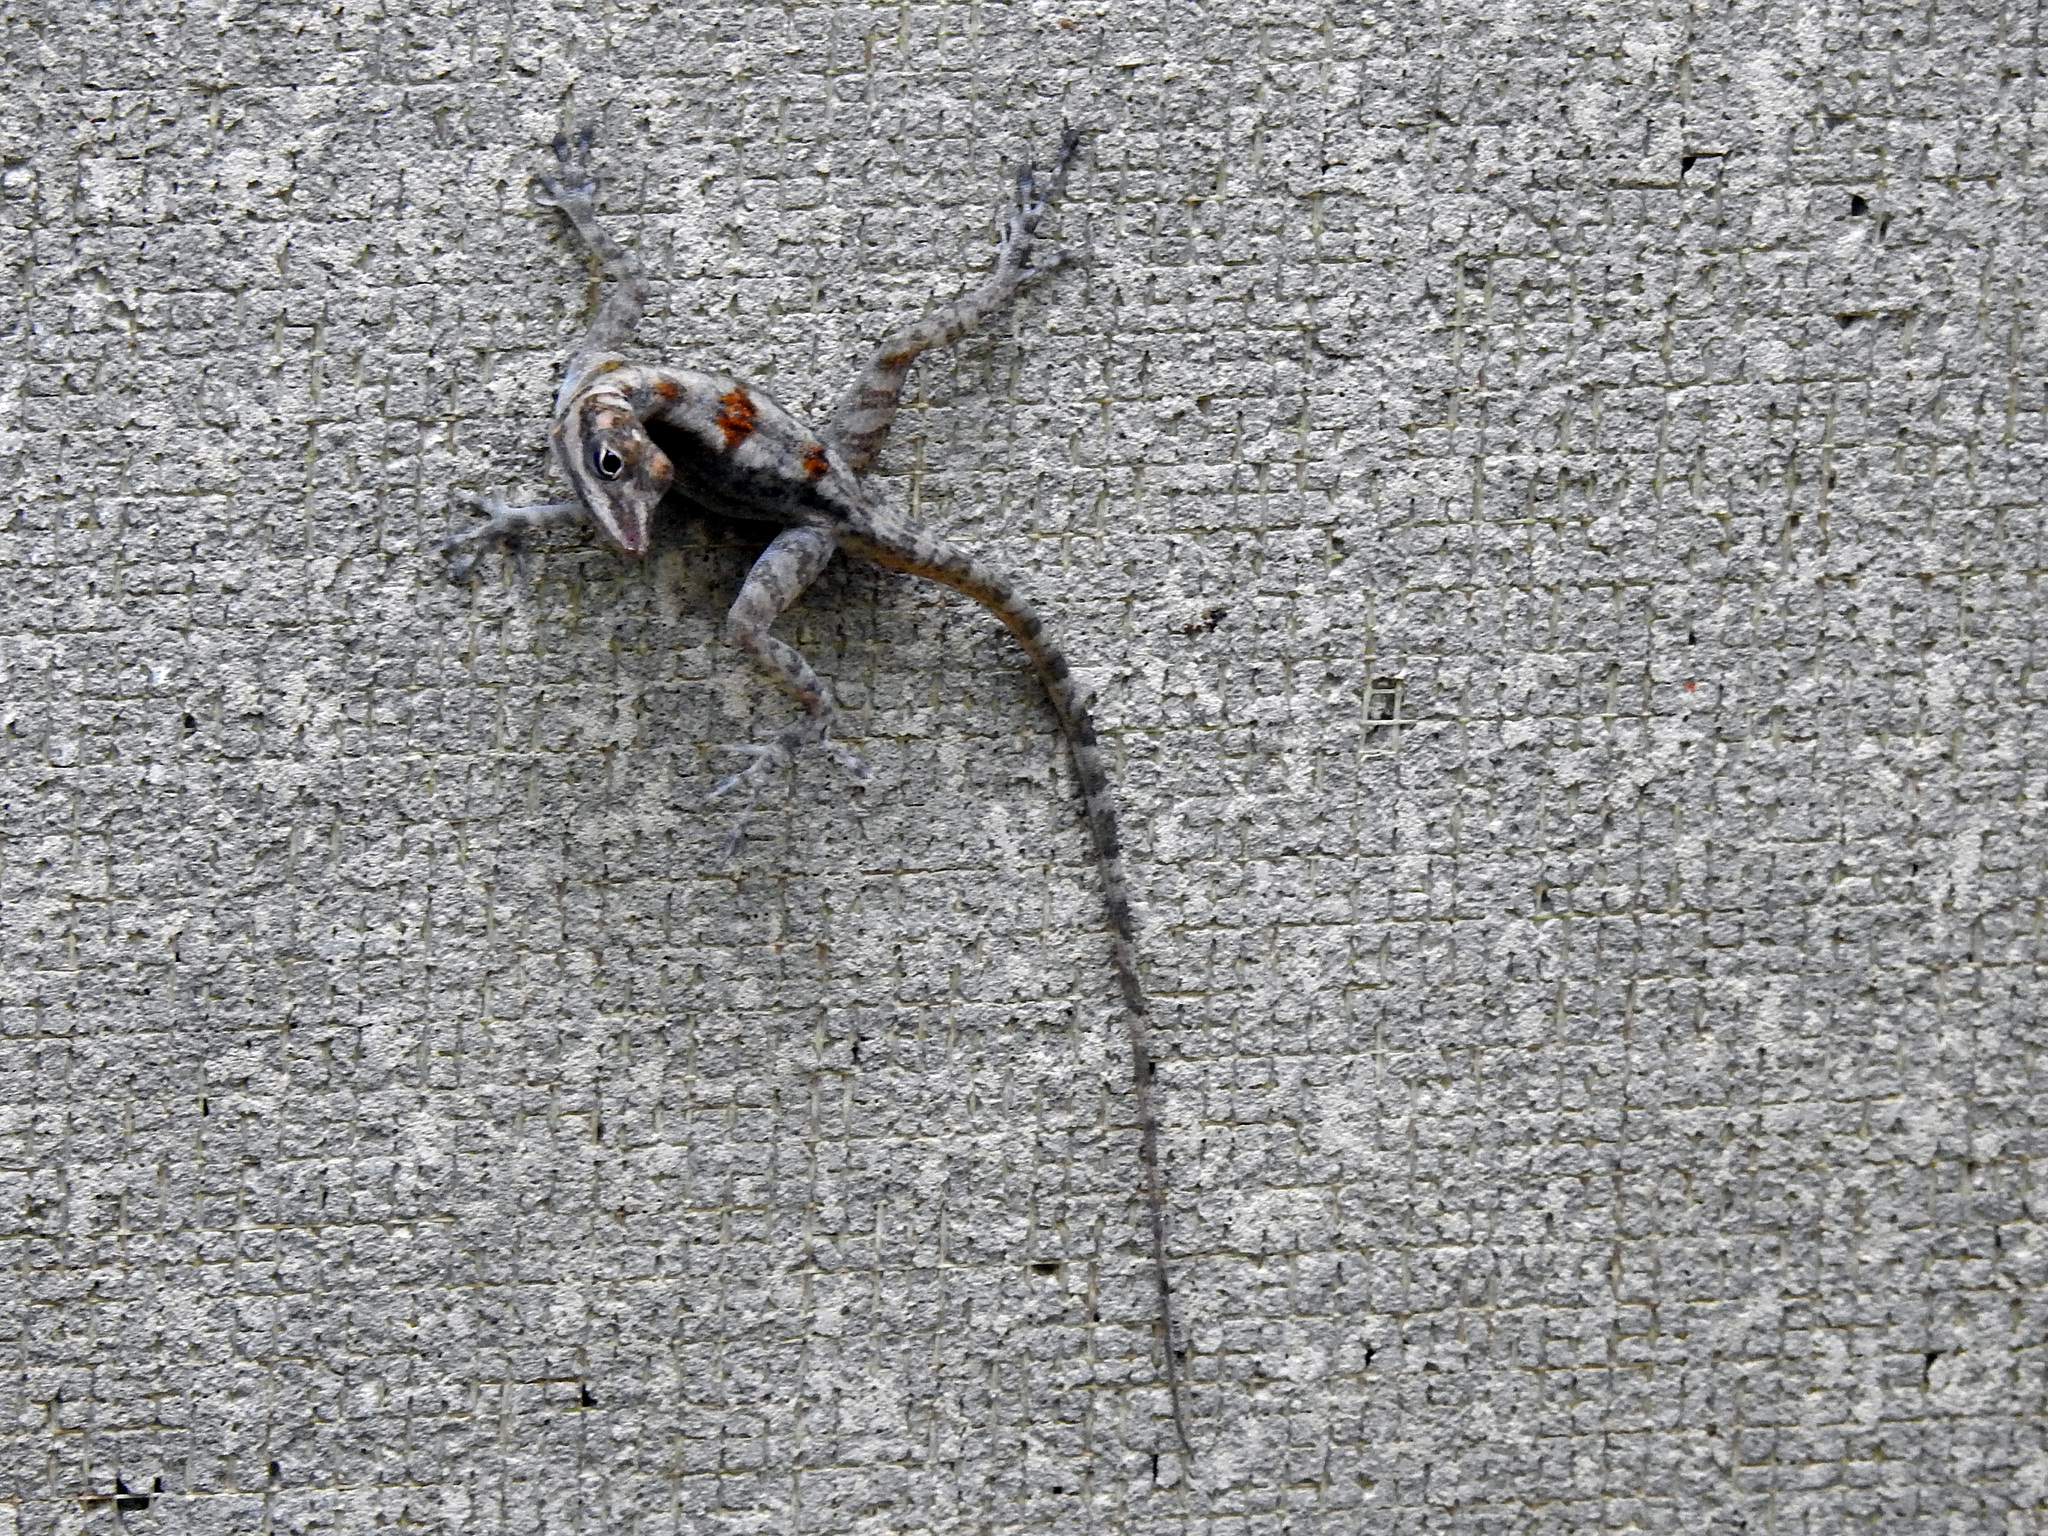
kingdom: Animalia
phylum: Chordata
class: Squamata
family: Dactyloidae
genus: Anolis
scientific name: Anolis lucius
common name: Cave anole
